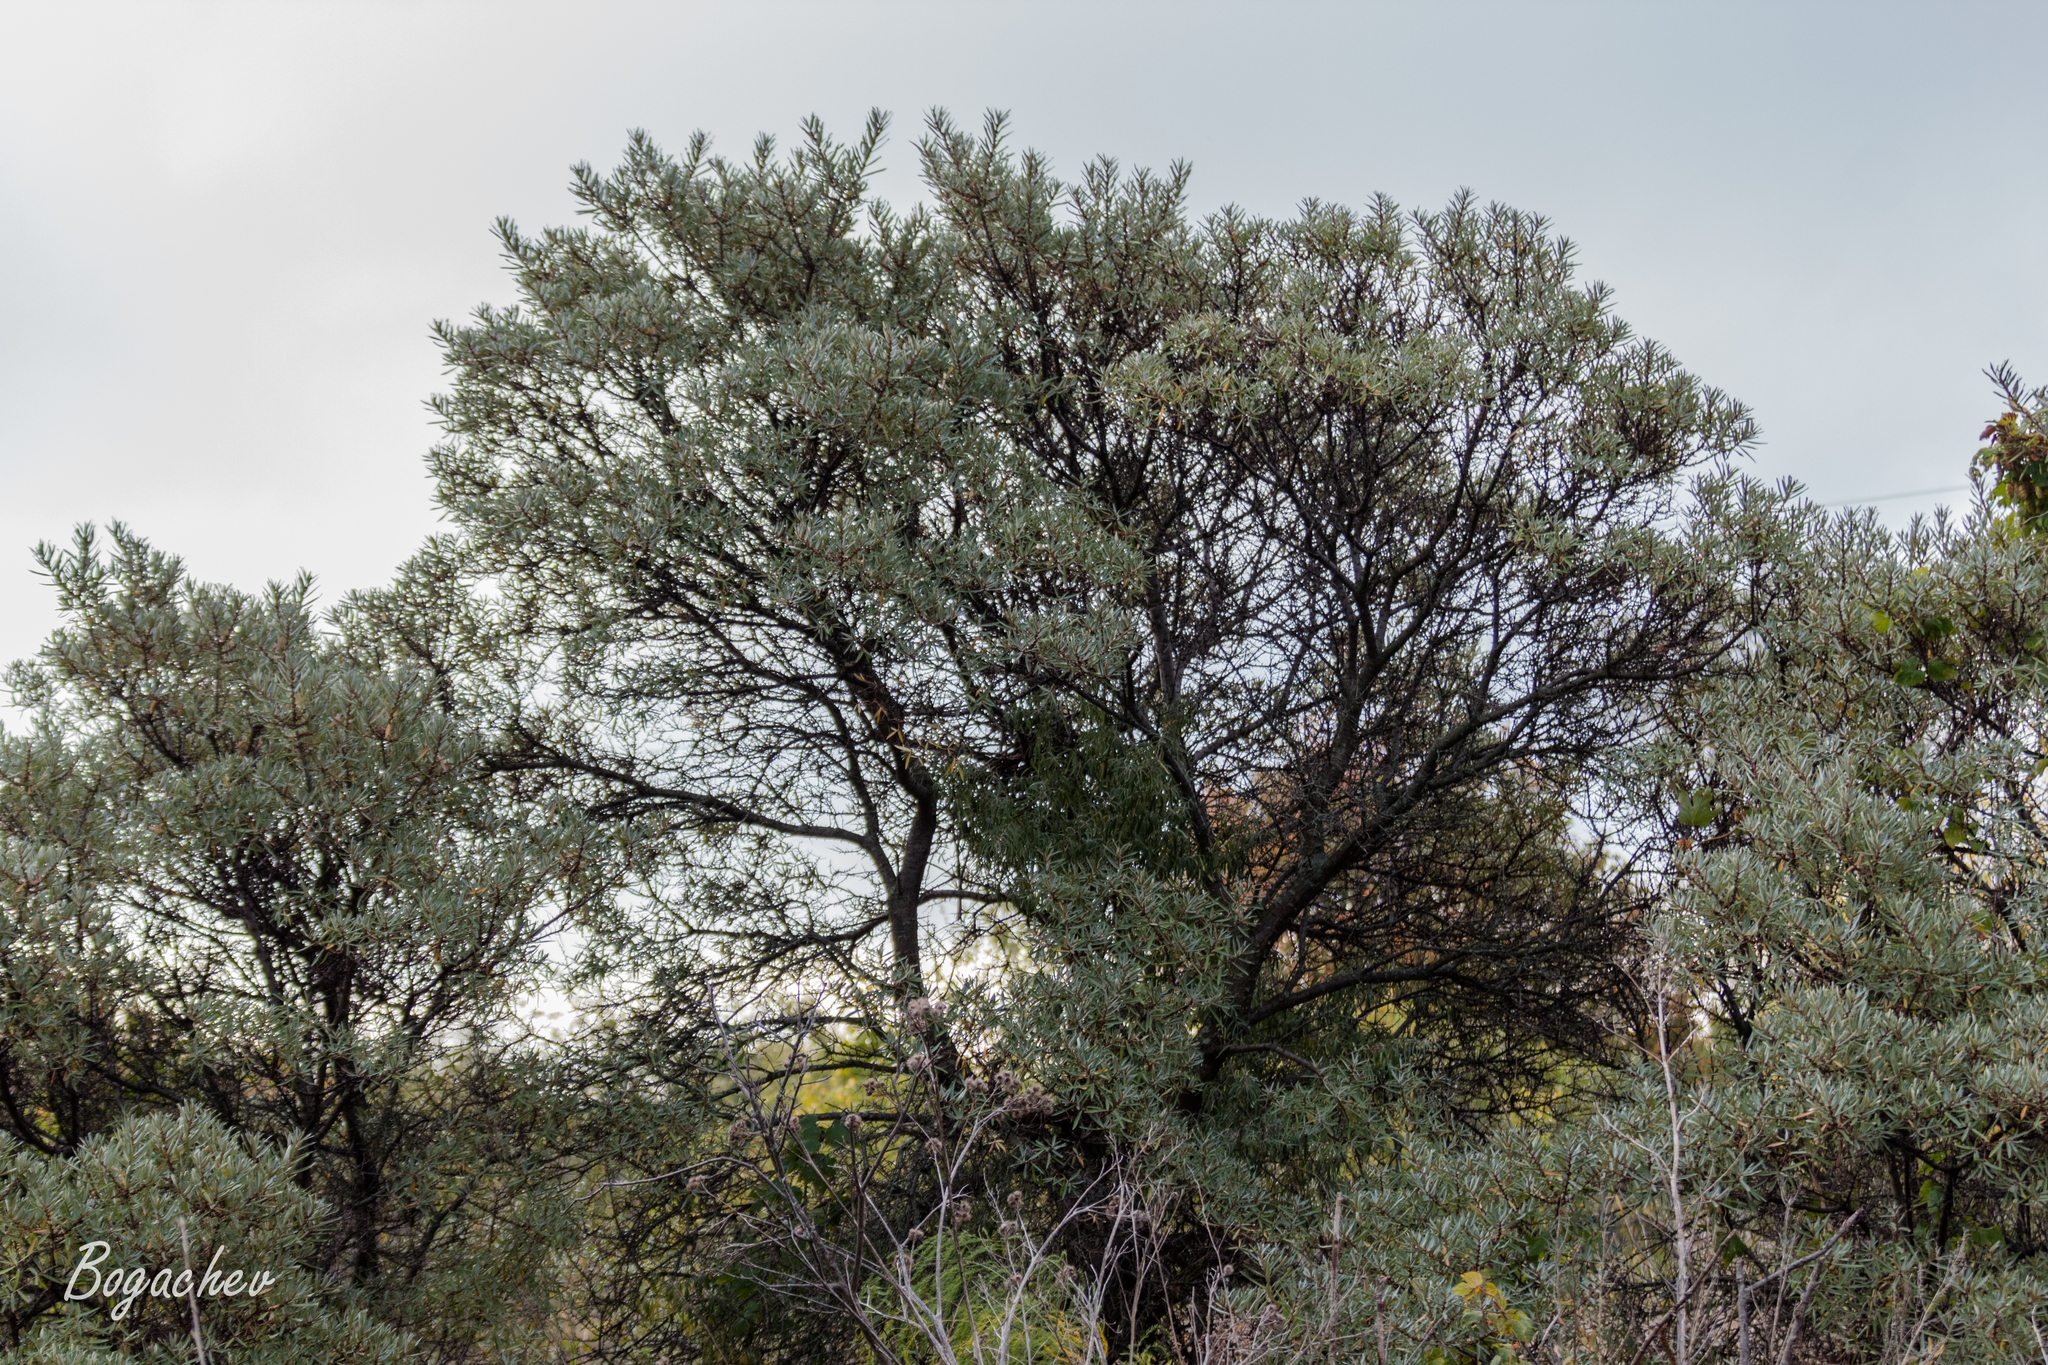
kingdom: Plantae
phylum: Tracheophyta
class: Magnoliopsida
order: Rosales
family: Elaeagnaceae
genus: Hippophae
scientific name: Hippophae rhamnoides
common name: Sea-buckthorn
